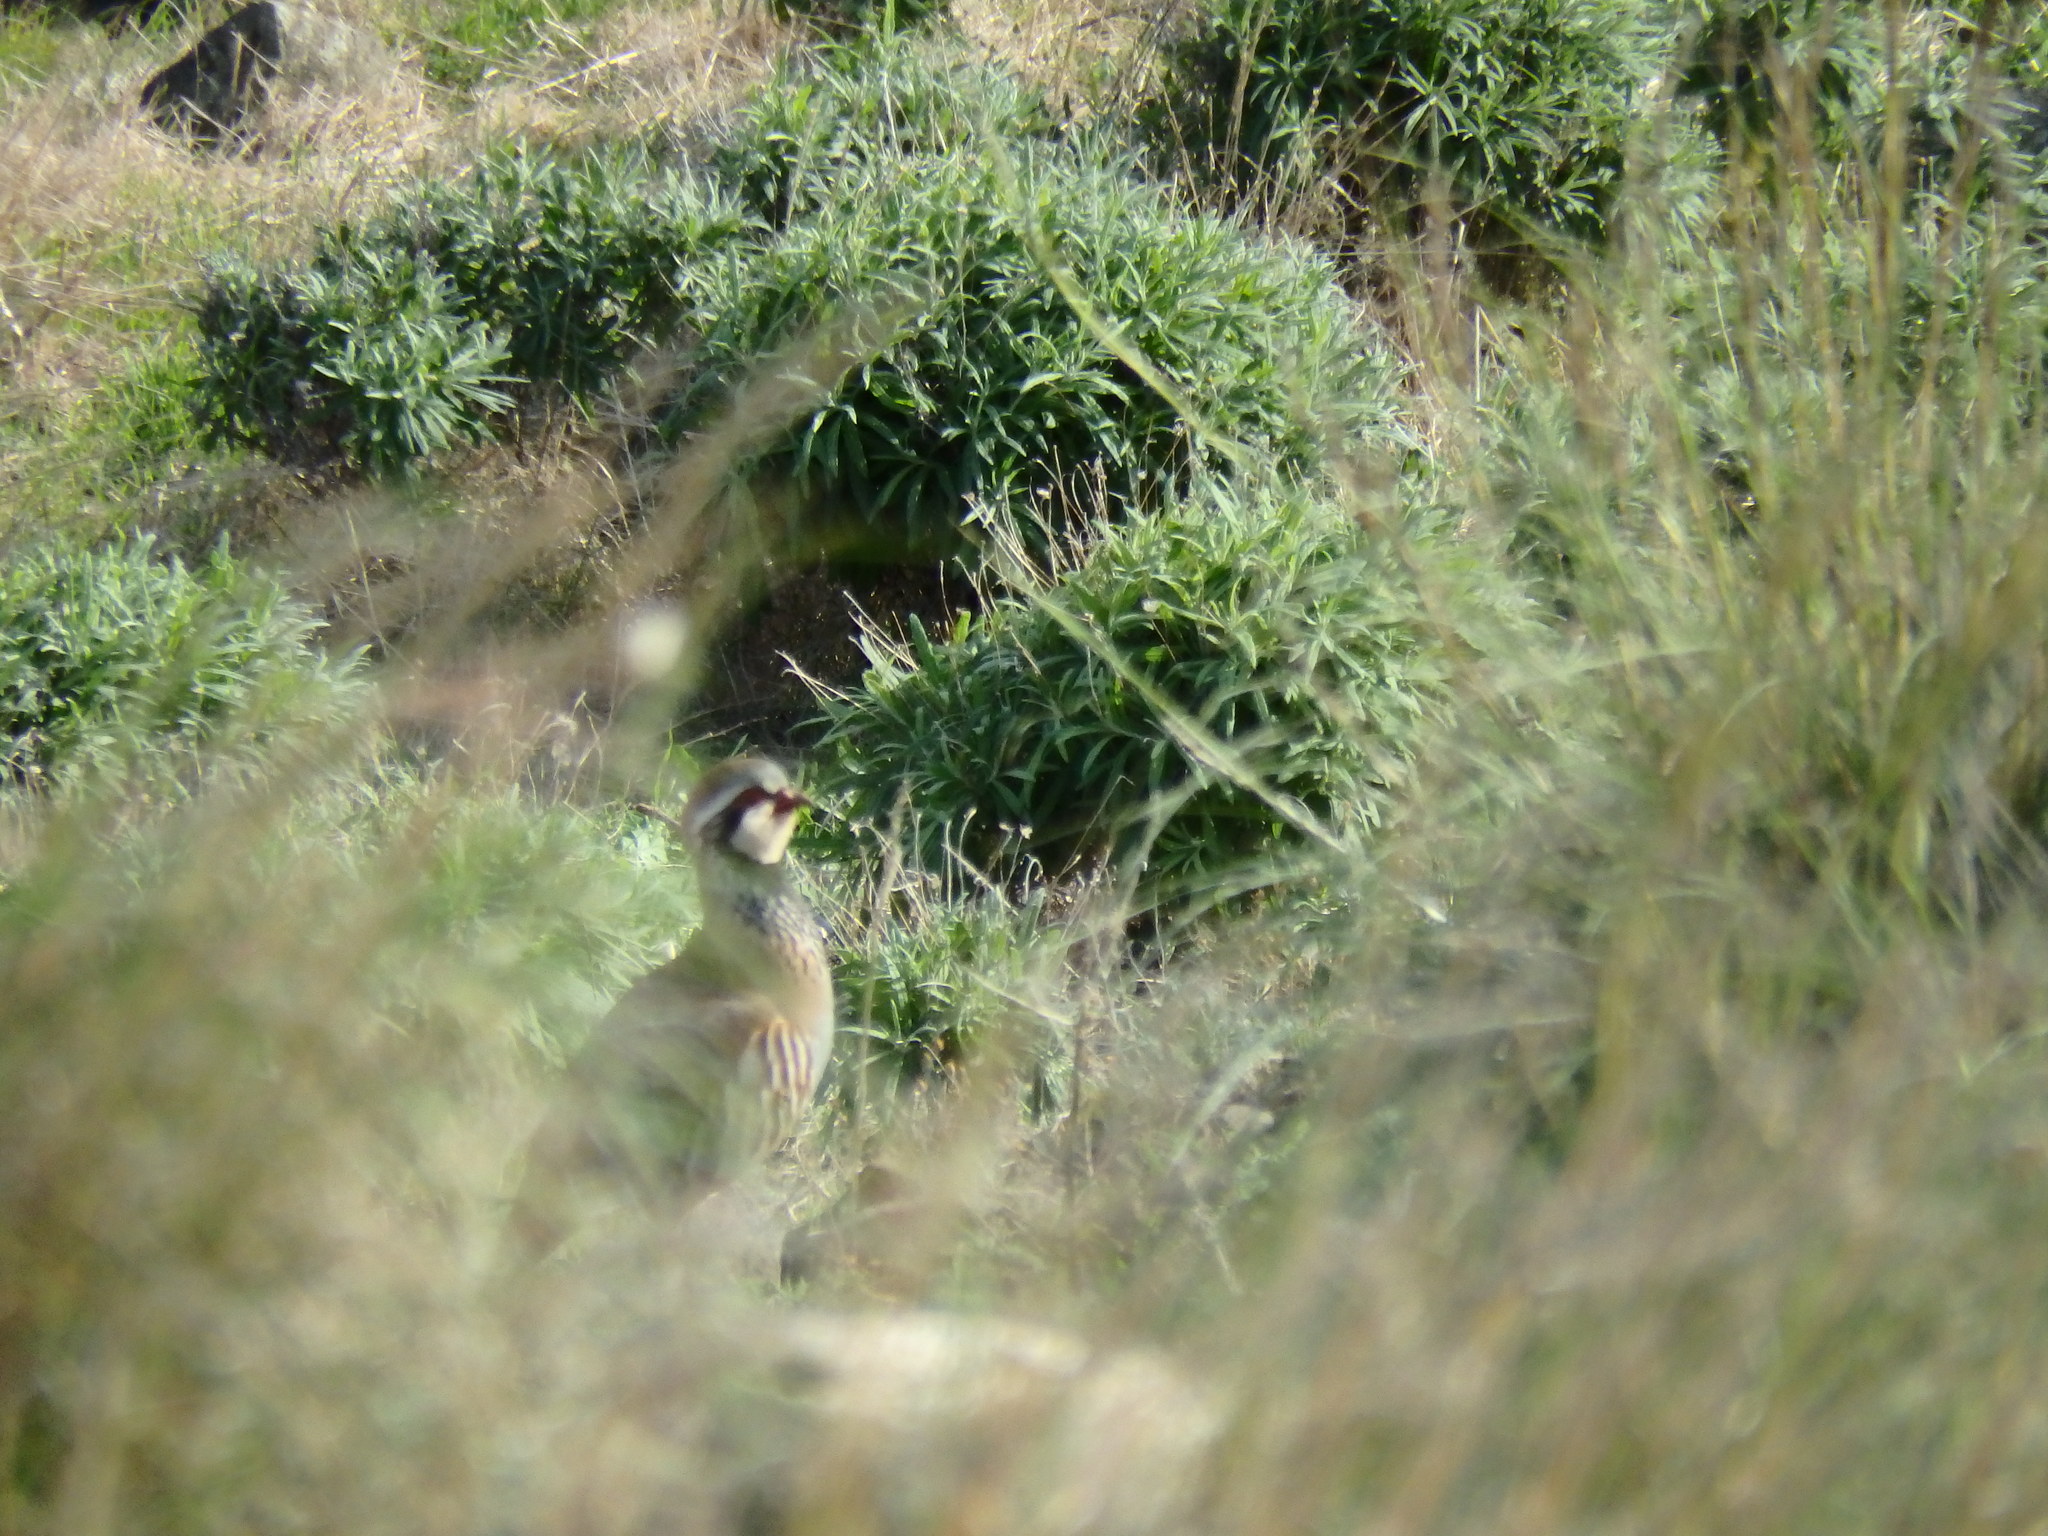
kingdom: Animalia
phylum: Chordata
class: Aves
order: Galliformes
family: Phasianidae
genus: Alectoris
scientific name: Alectoris rufa
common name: Red-legged partridge
